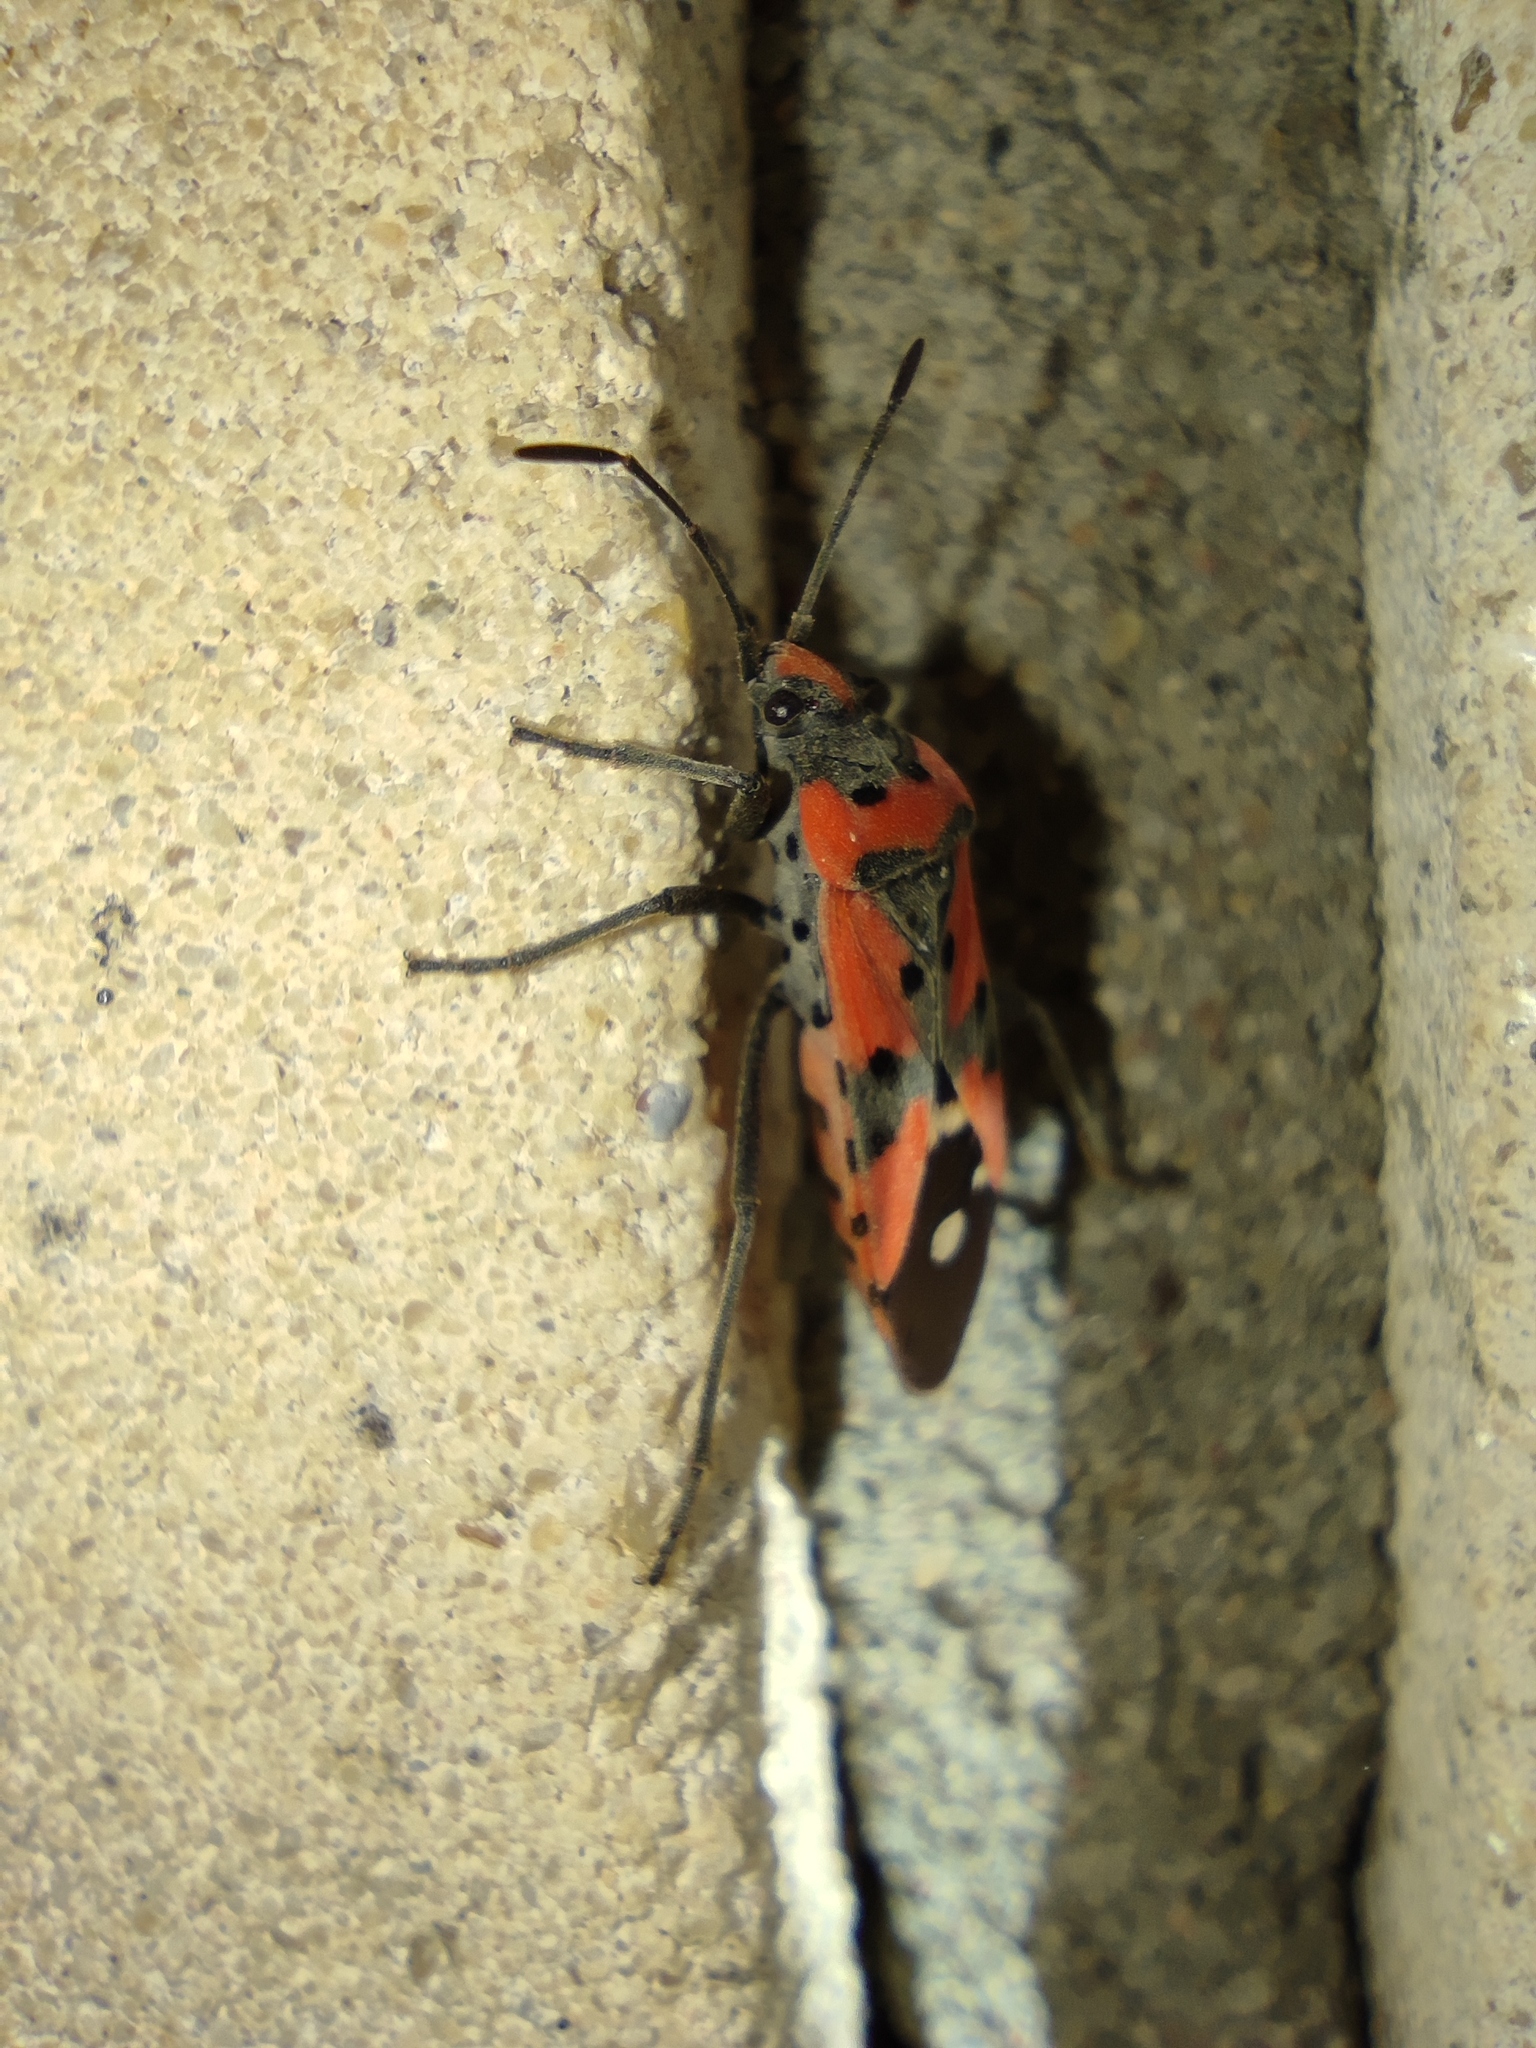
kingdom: Animalia
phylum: Arthropoda
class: Insecta
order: Hemiptera
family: Lygaeidae
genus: Lygaeus
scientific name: Lygaeus equestris
